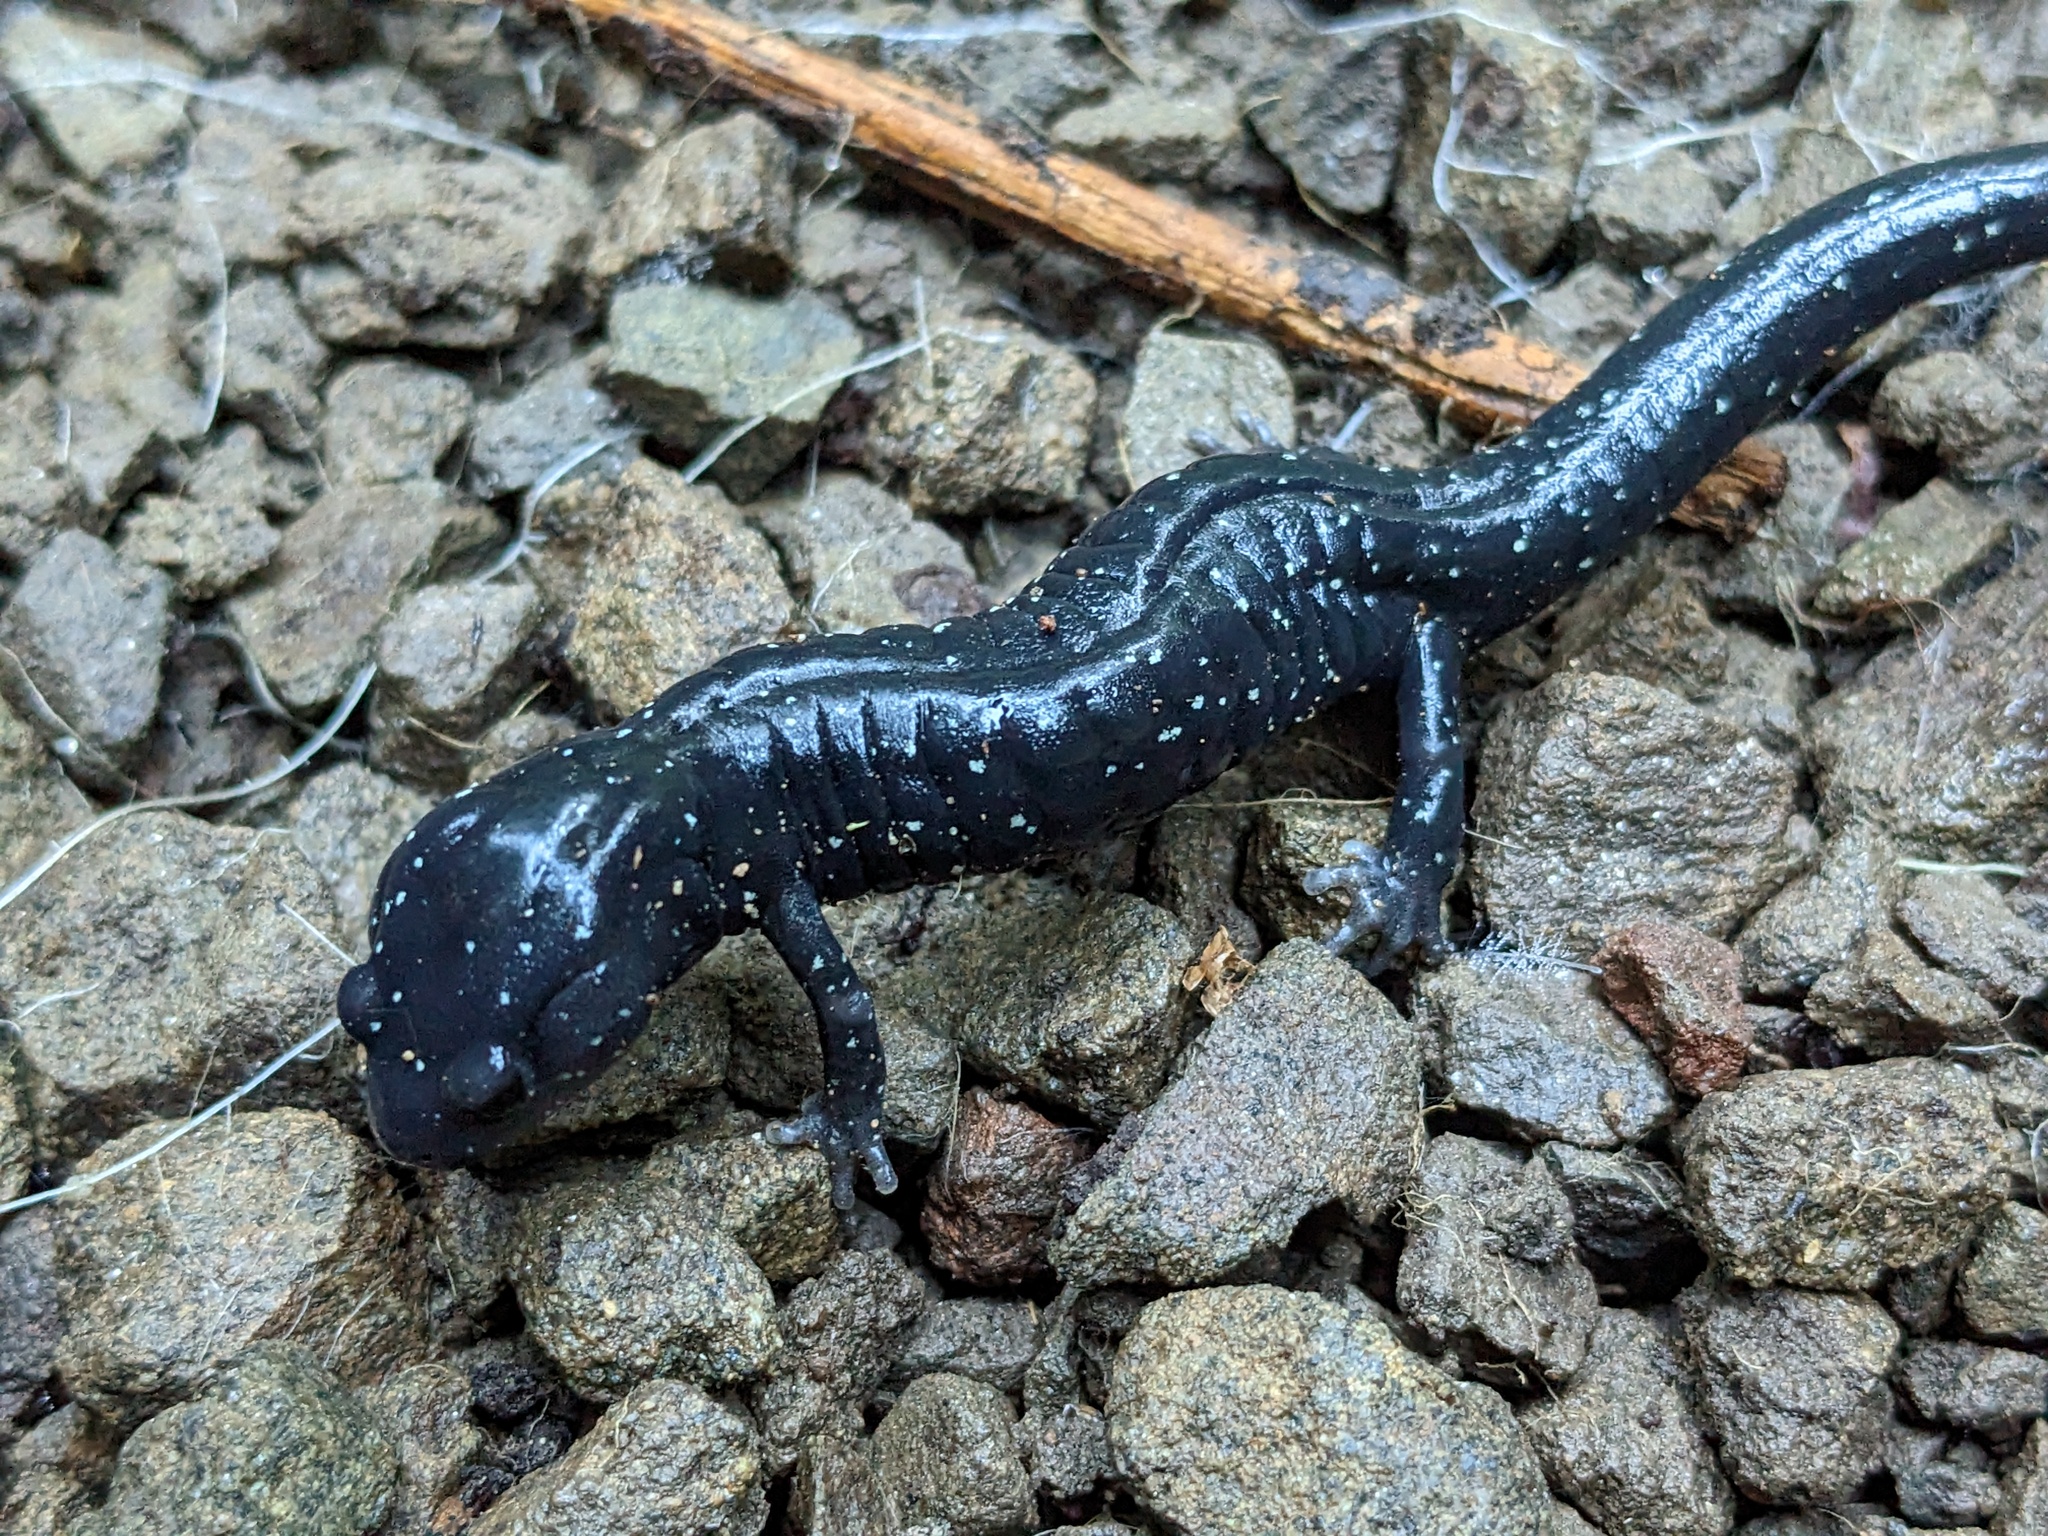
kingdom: Animalia
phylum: Chordata
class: Amphibia
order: Caudata
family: Plethodontidae
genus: Aneides
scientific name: Aneides flavipunctatus
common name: Black salamander
